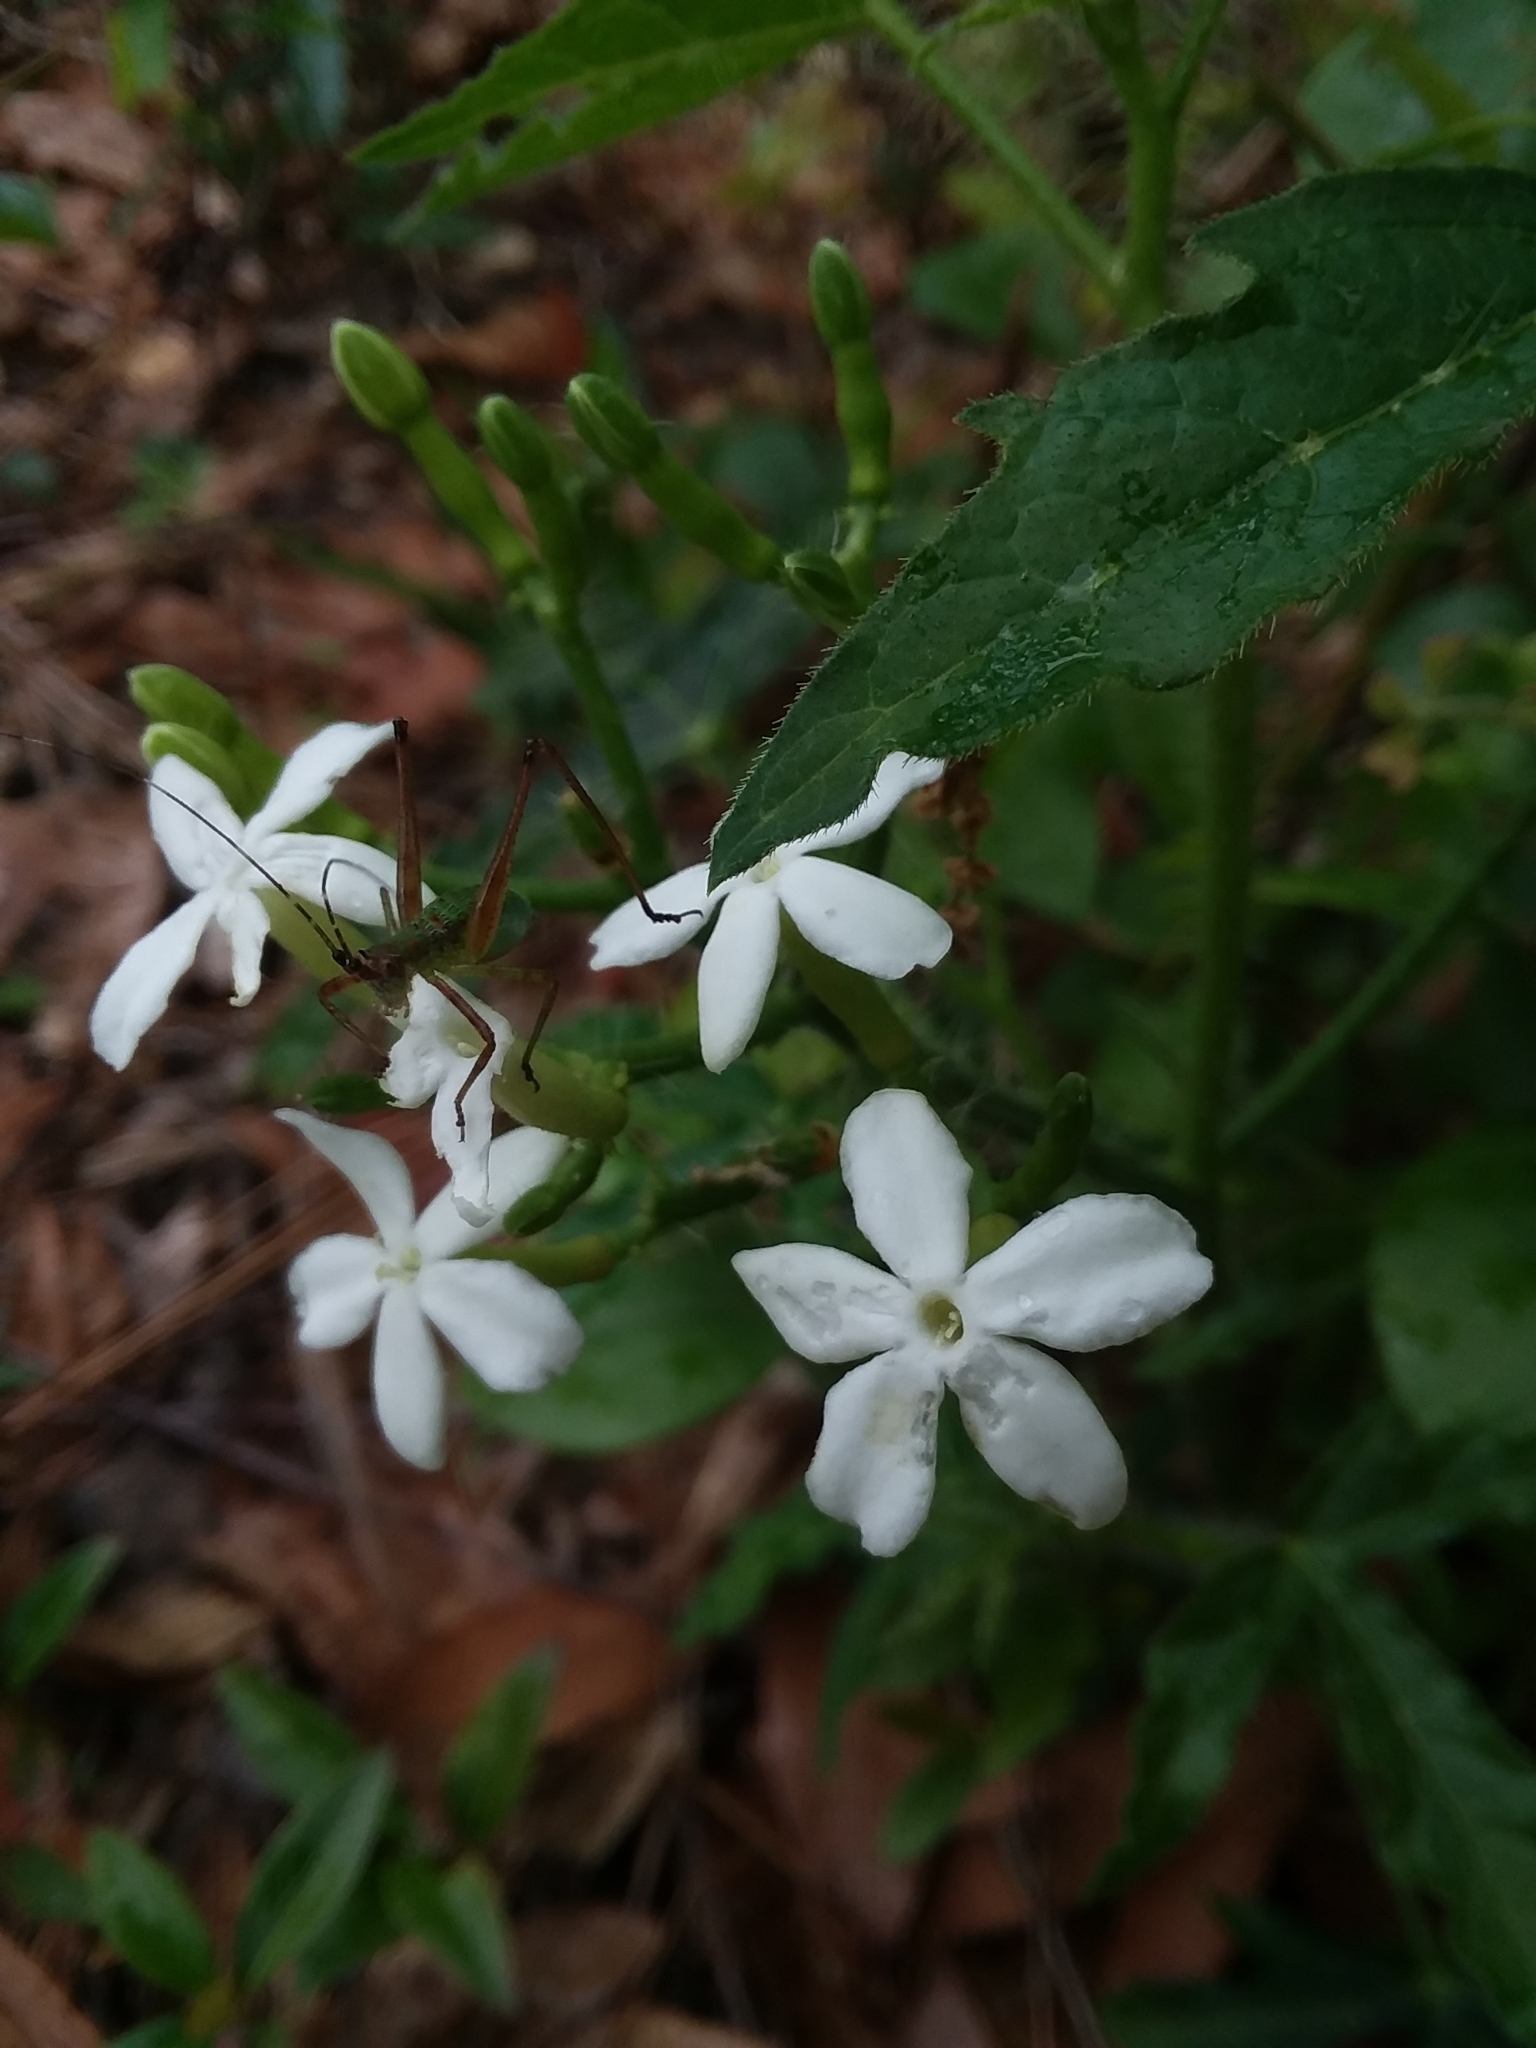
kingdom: Plantae
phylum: Tracheophyta
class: Magnoliopsida
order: Malpighiales
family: Euphorbiaceae
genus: Cnidoscolus
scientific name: Cnidoscolus stimulosus
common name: Bull-nettle
